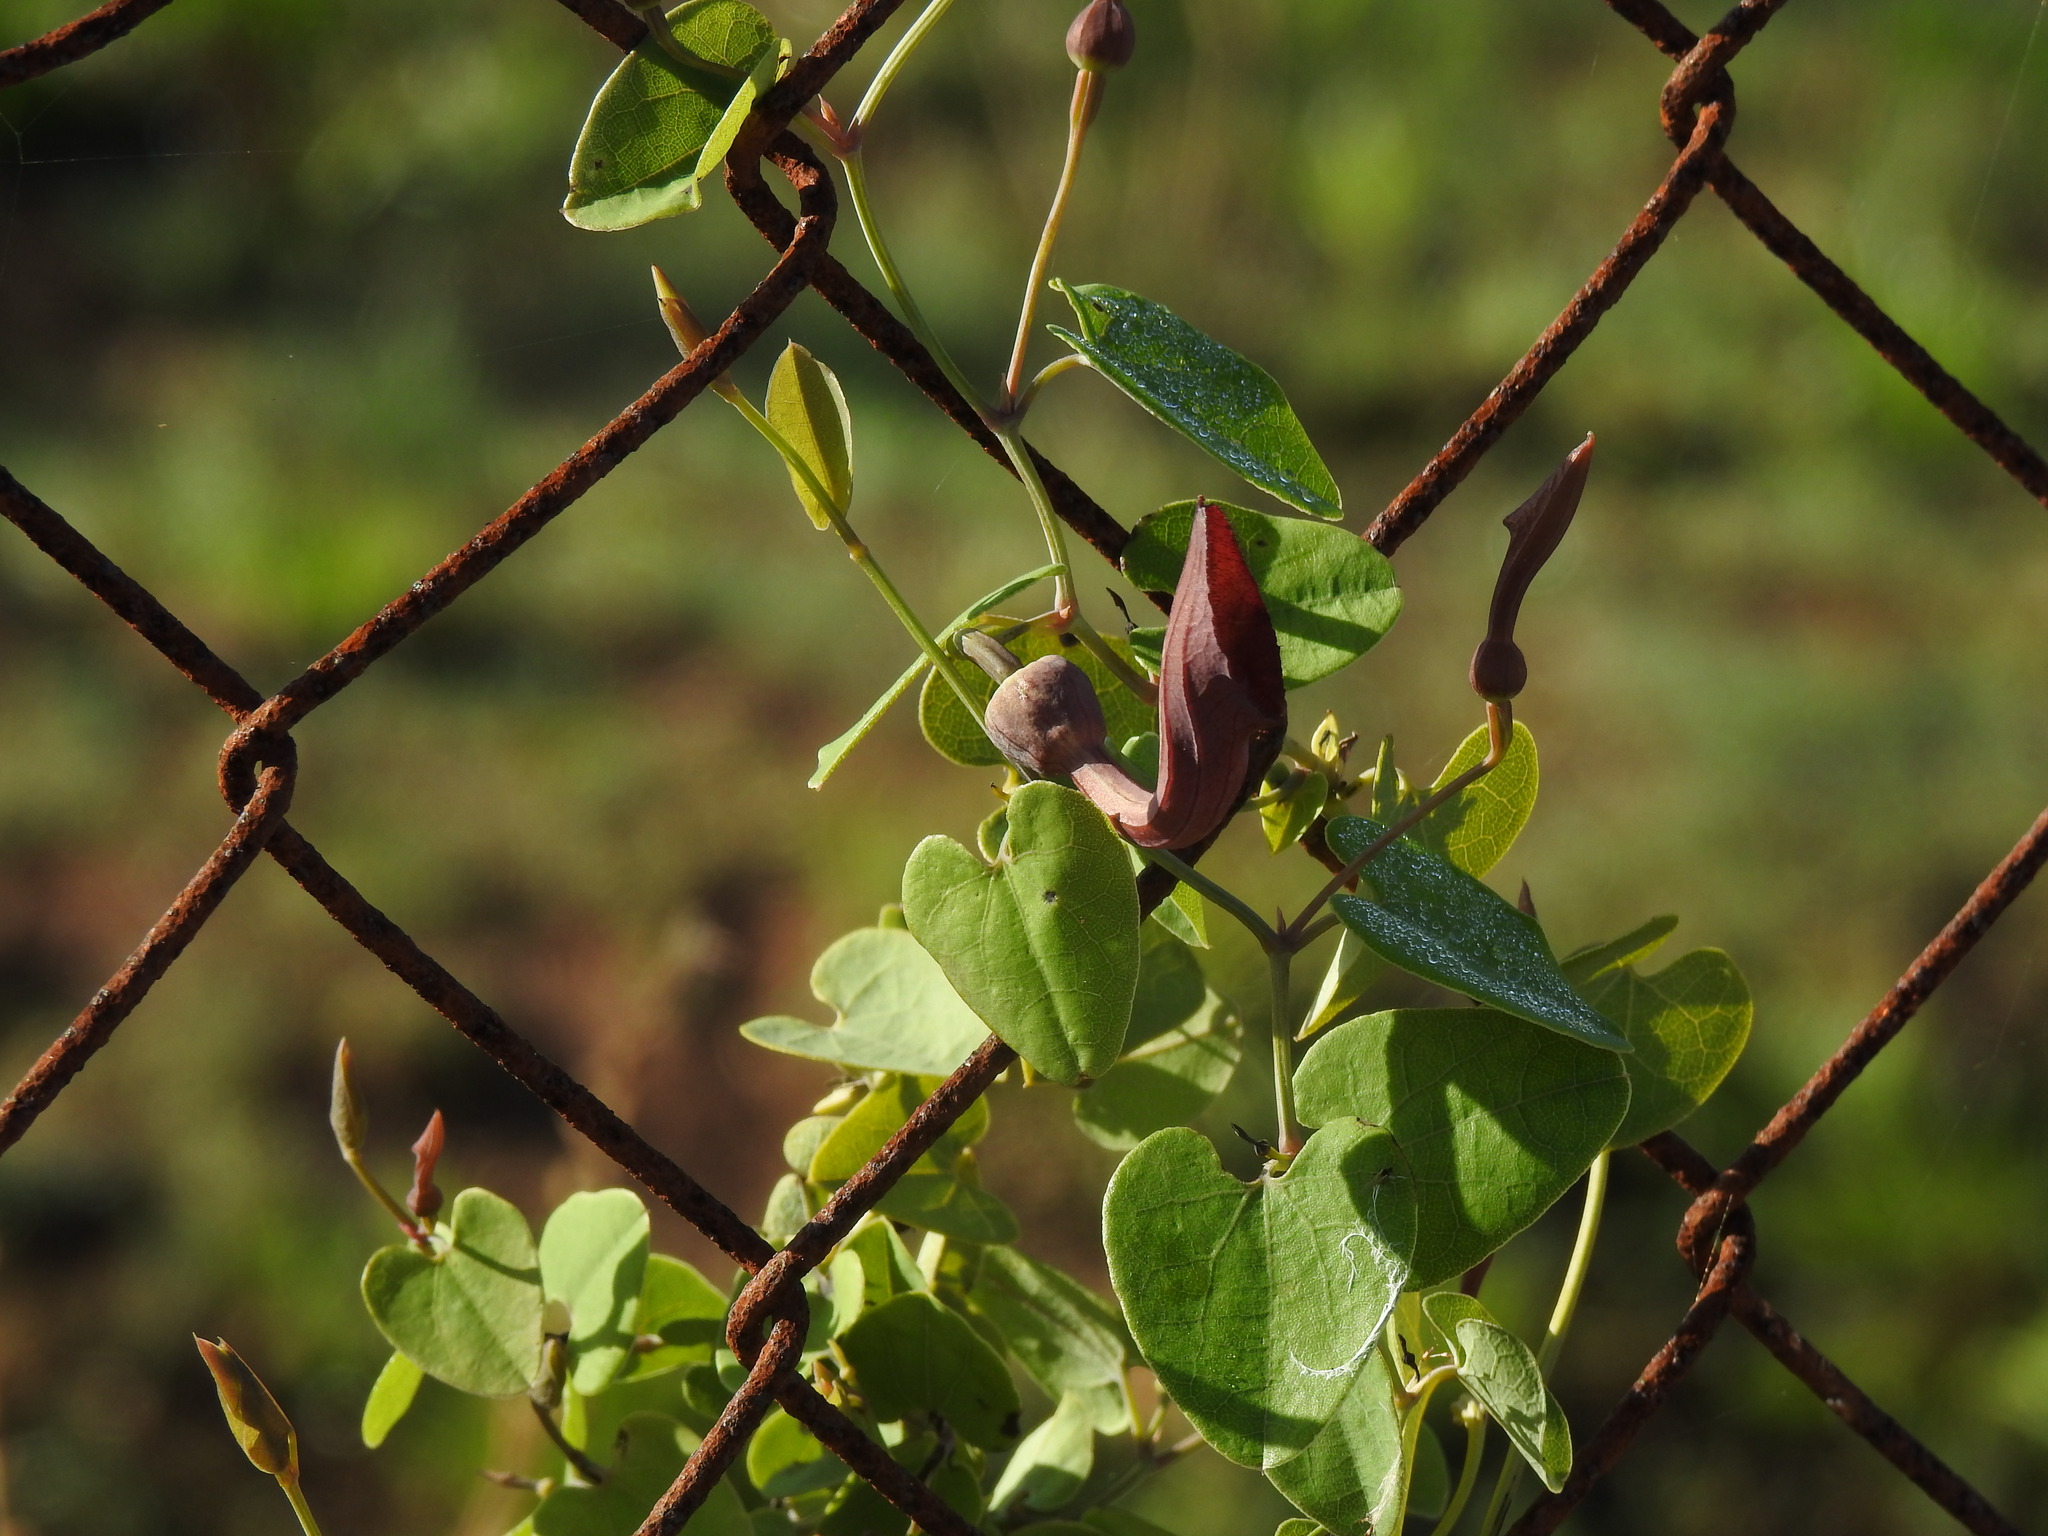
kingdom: Plantae
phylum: Tracheophyta
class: Magnoliopsida
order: Piperales
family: Aristolochiaceae
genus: Aristolochia
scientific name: Aristolochia baetica
